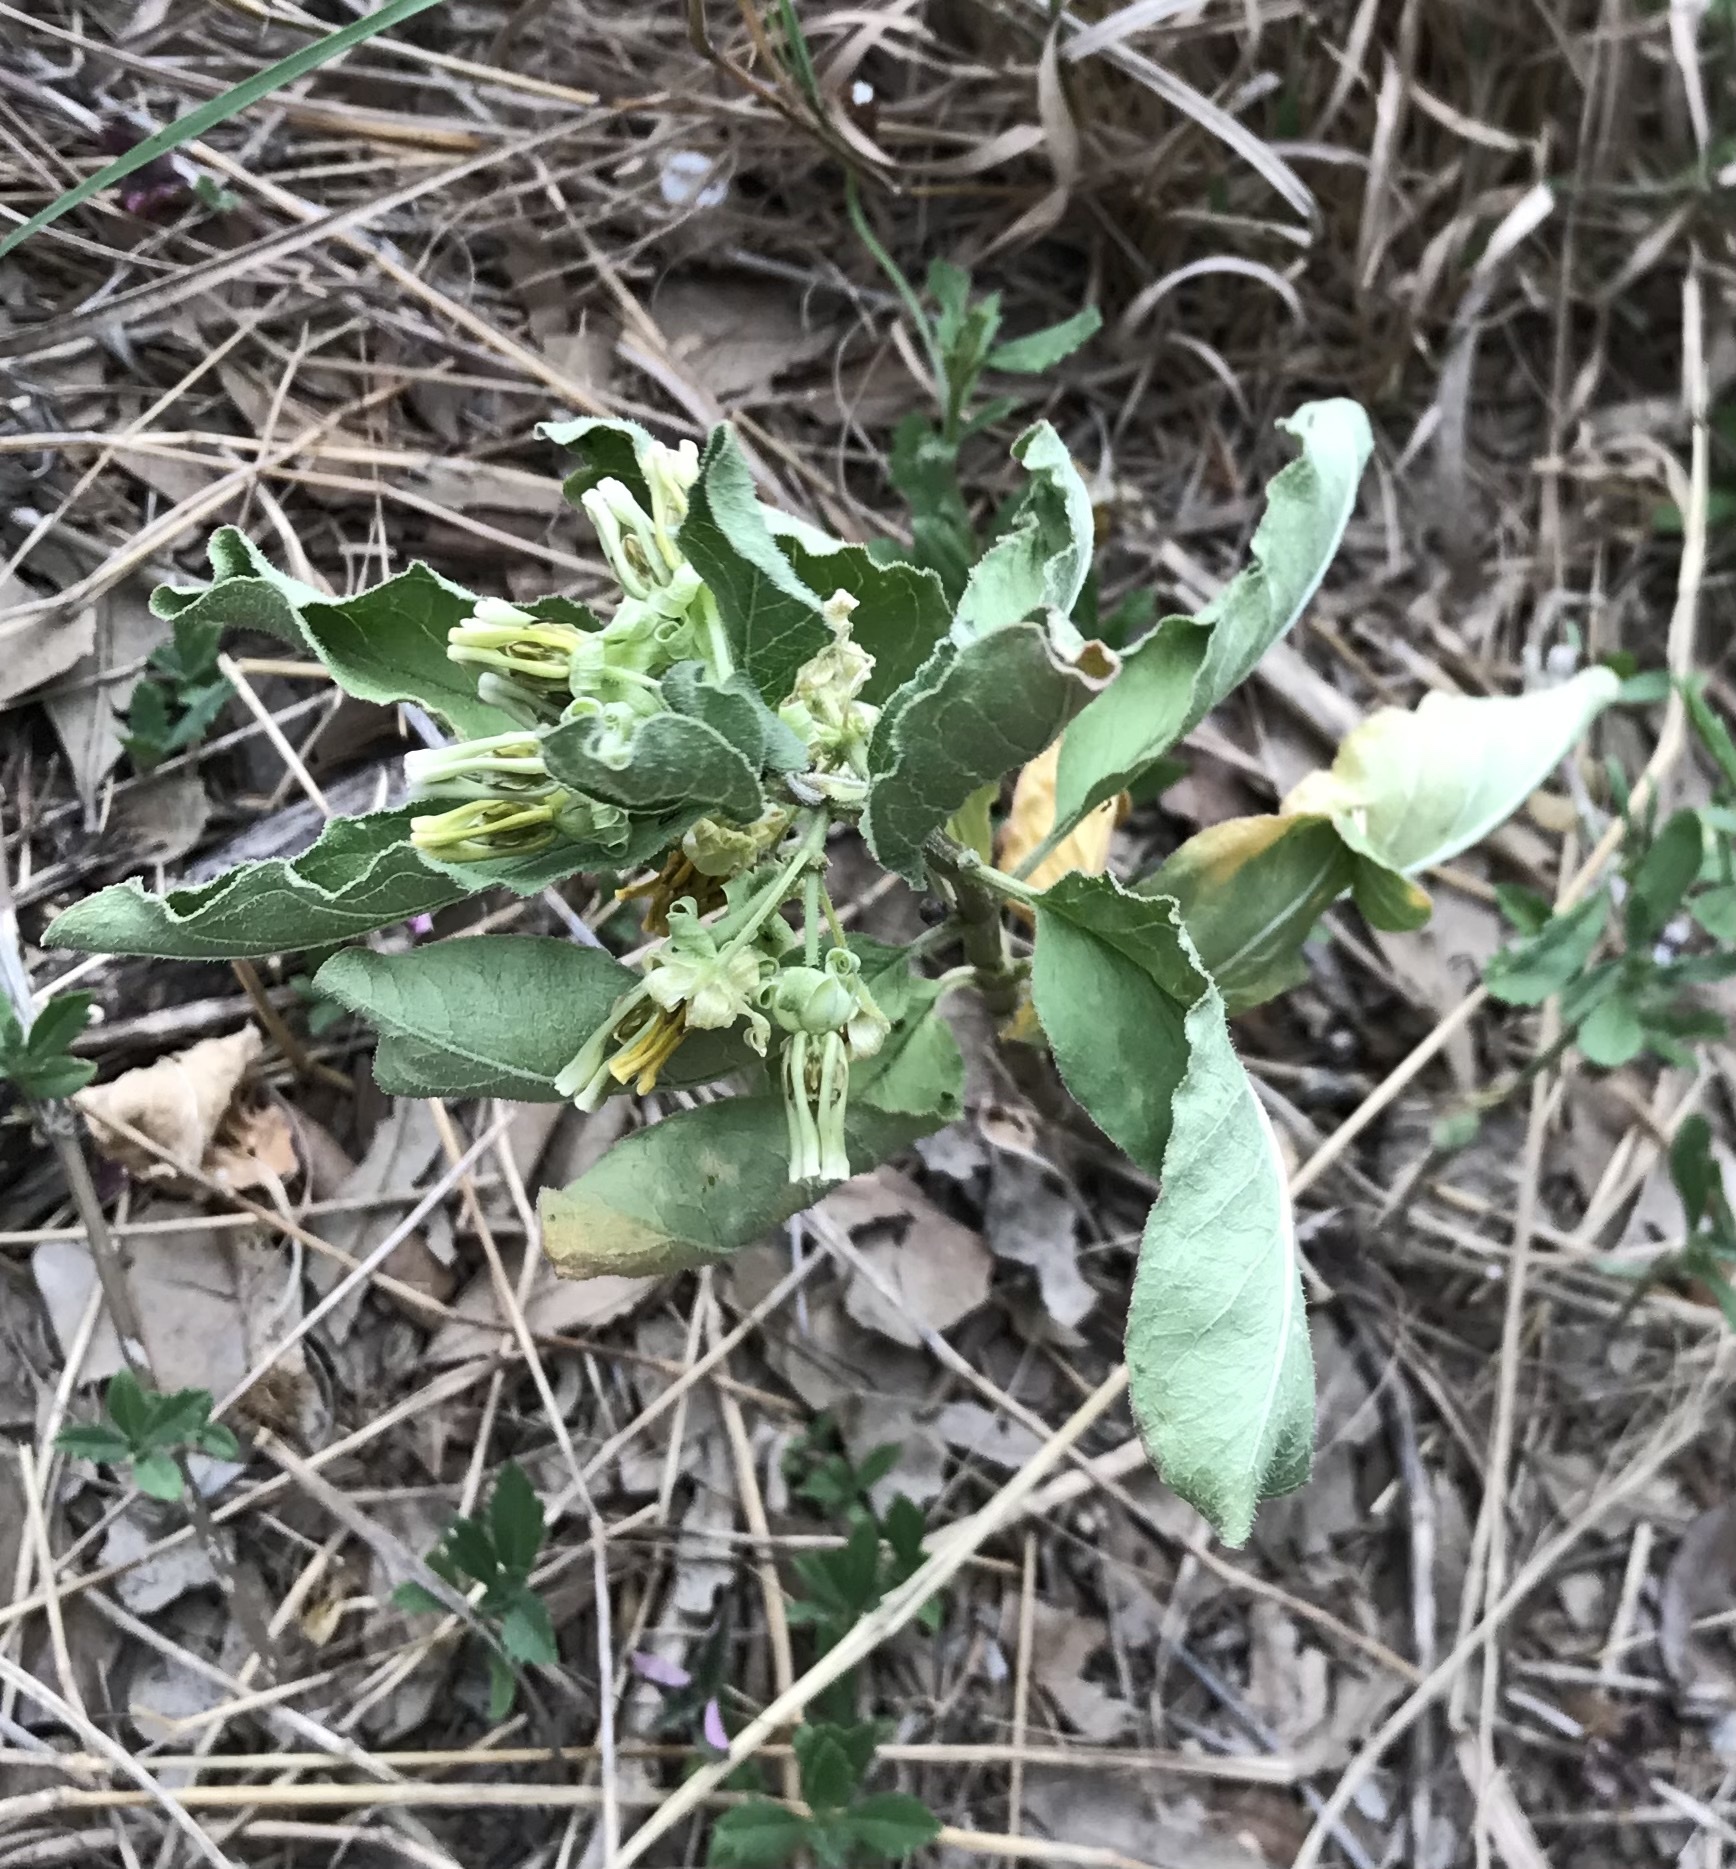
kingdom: Plantae
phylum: Tracheophyta
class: Magnoliopsida
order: Gentianales
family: Apocynaceae
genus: Asclepias
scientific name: Asclepias oenotheroides
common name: Zizotes milkweed
